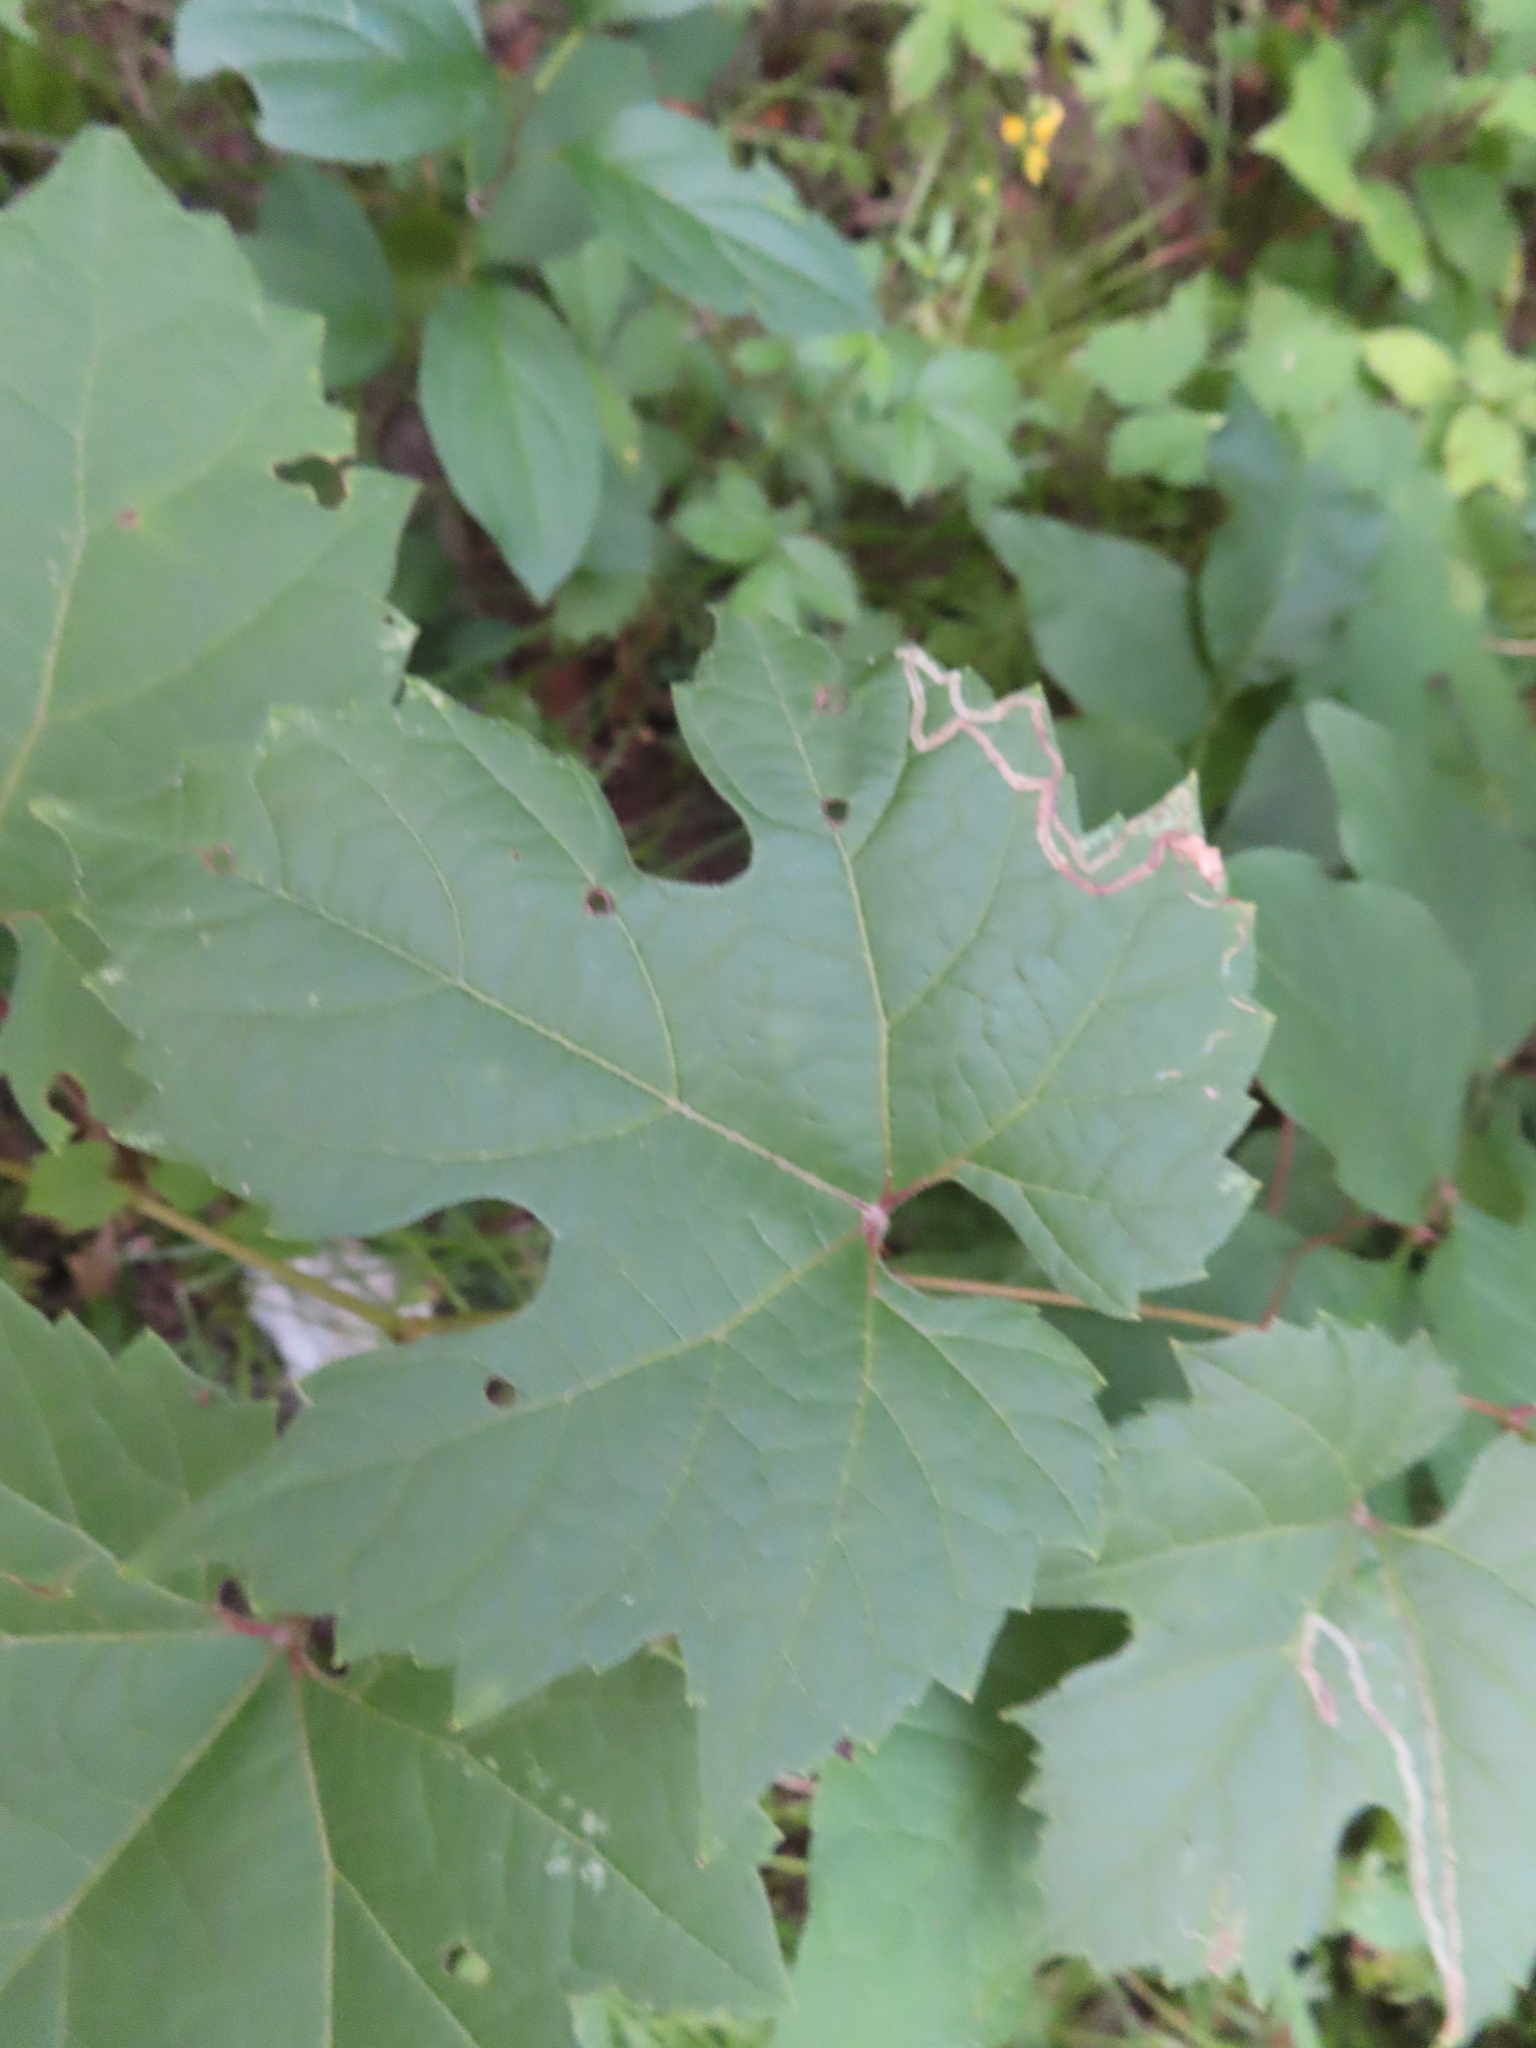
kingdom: Animalia
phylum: Arthropoda
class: Insecta
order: Lepidoptera
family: Gracillariidae
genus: Phyllocnistis
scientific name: Phyllocnistis vitifoliella
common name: Grape leaf-miner moth
